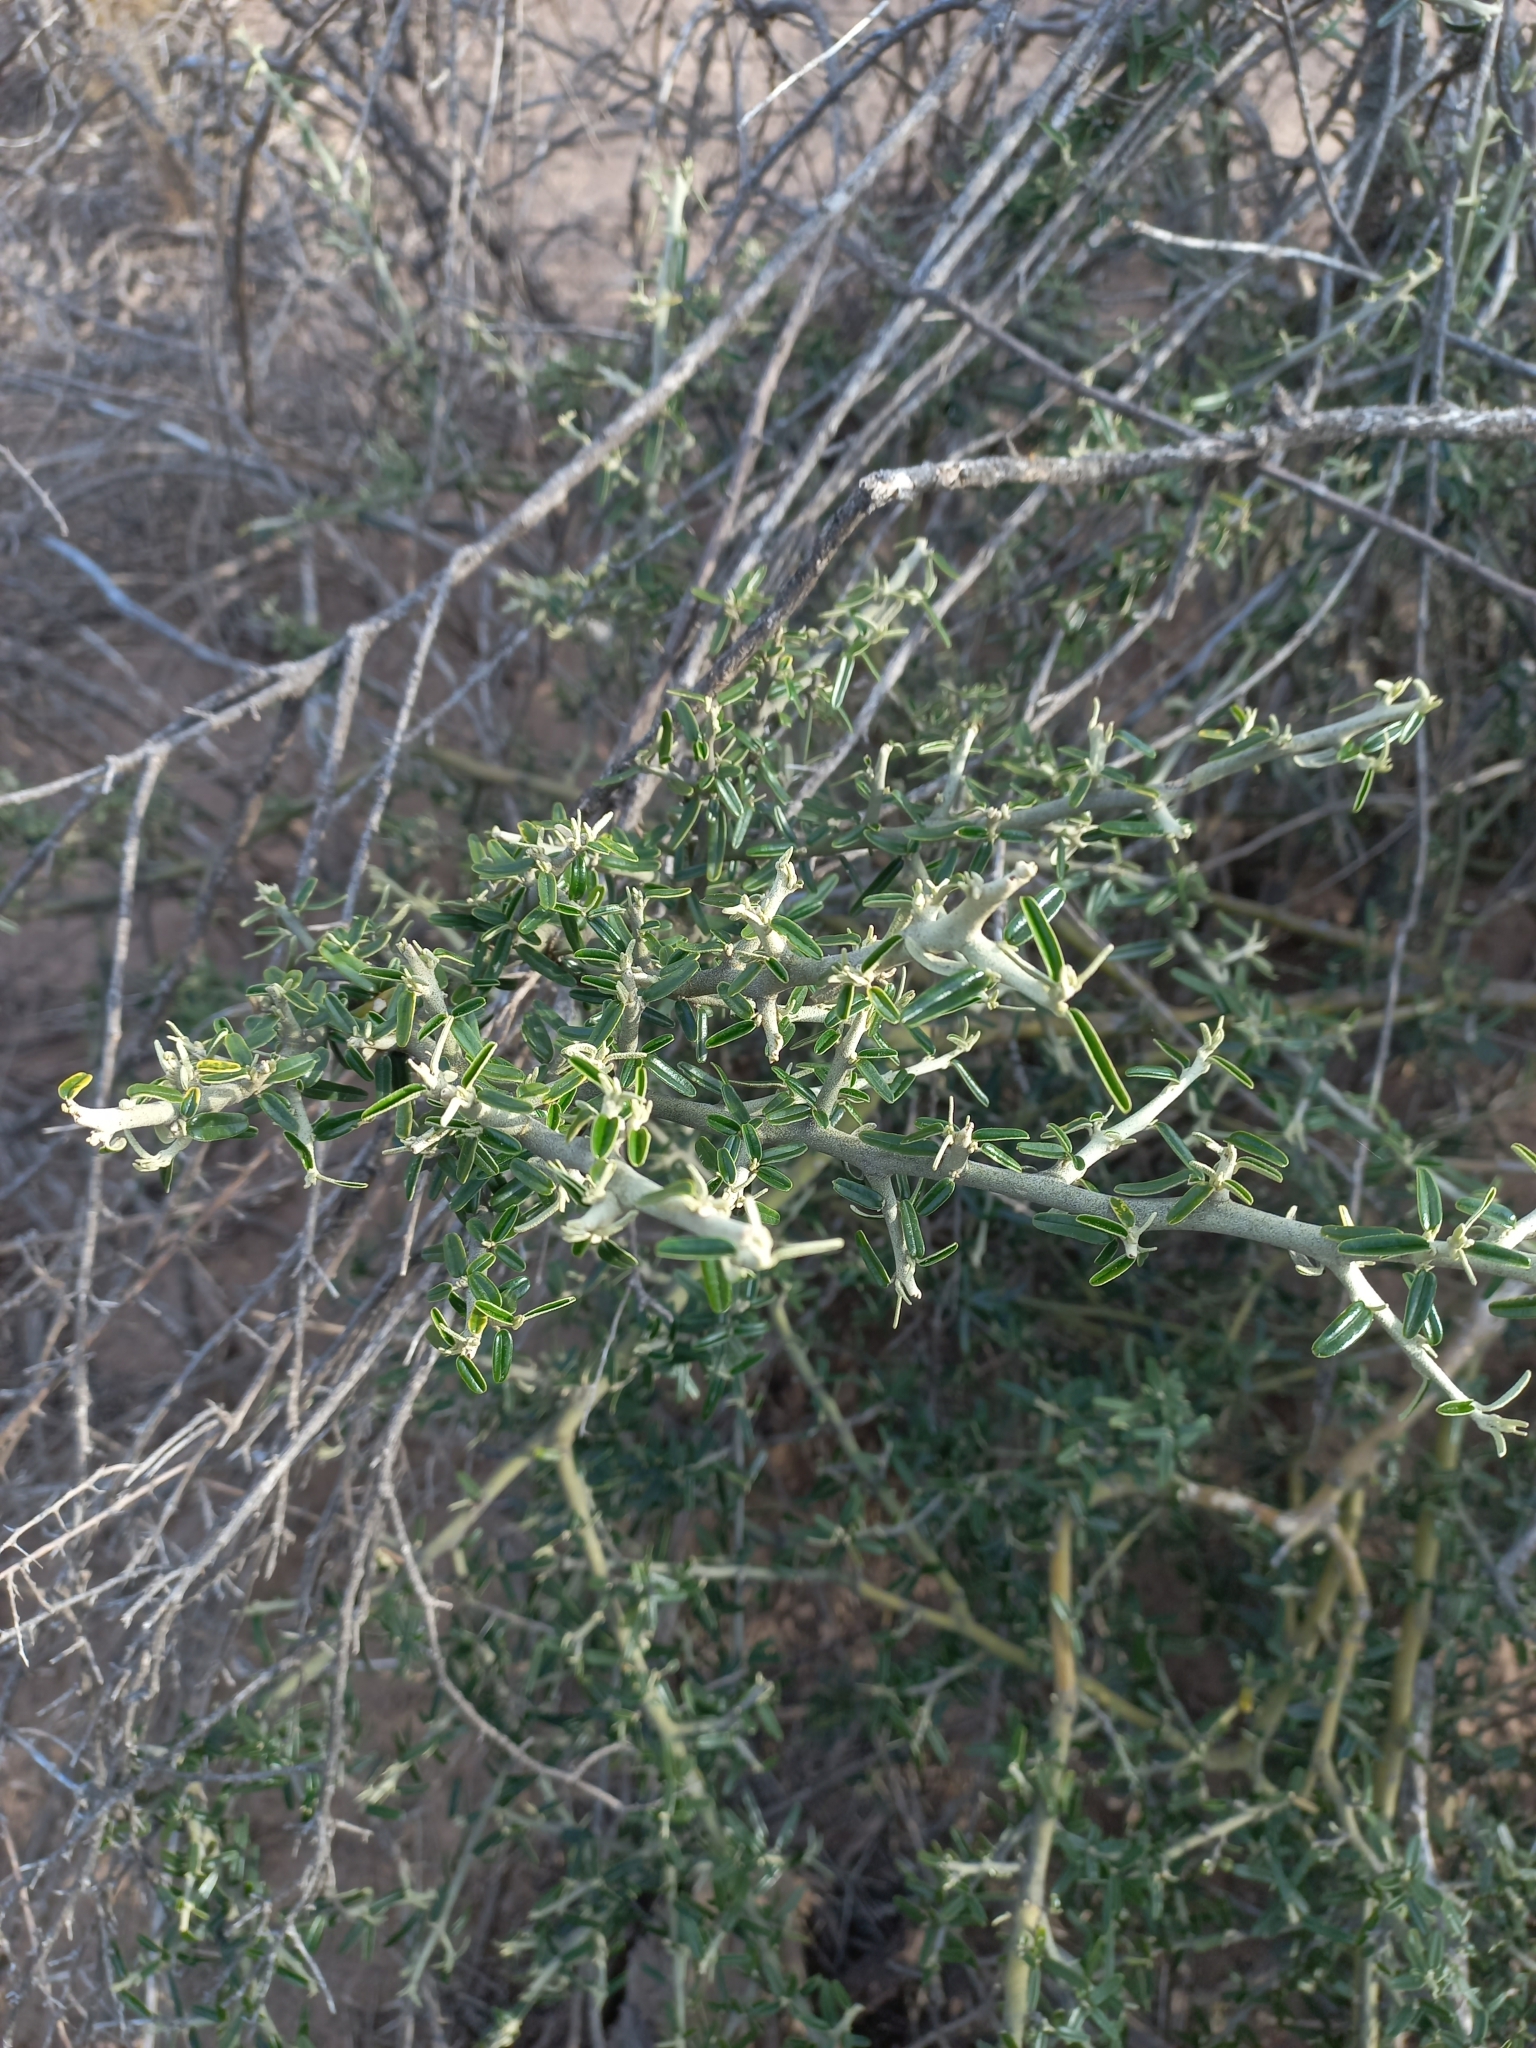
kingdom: Plantae
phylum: Tracheophyta
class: Magnoliopsida
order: Brassicales
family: Capparaceae
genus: Atamisquea
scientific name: Atamisquea emarginata
